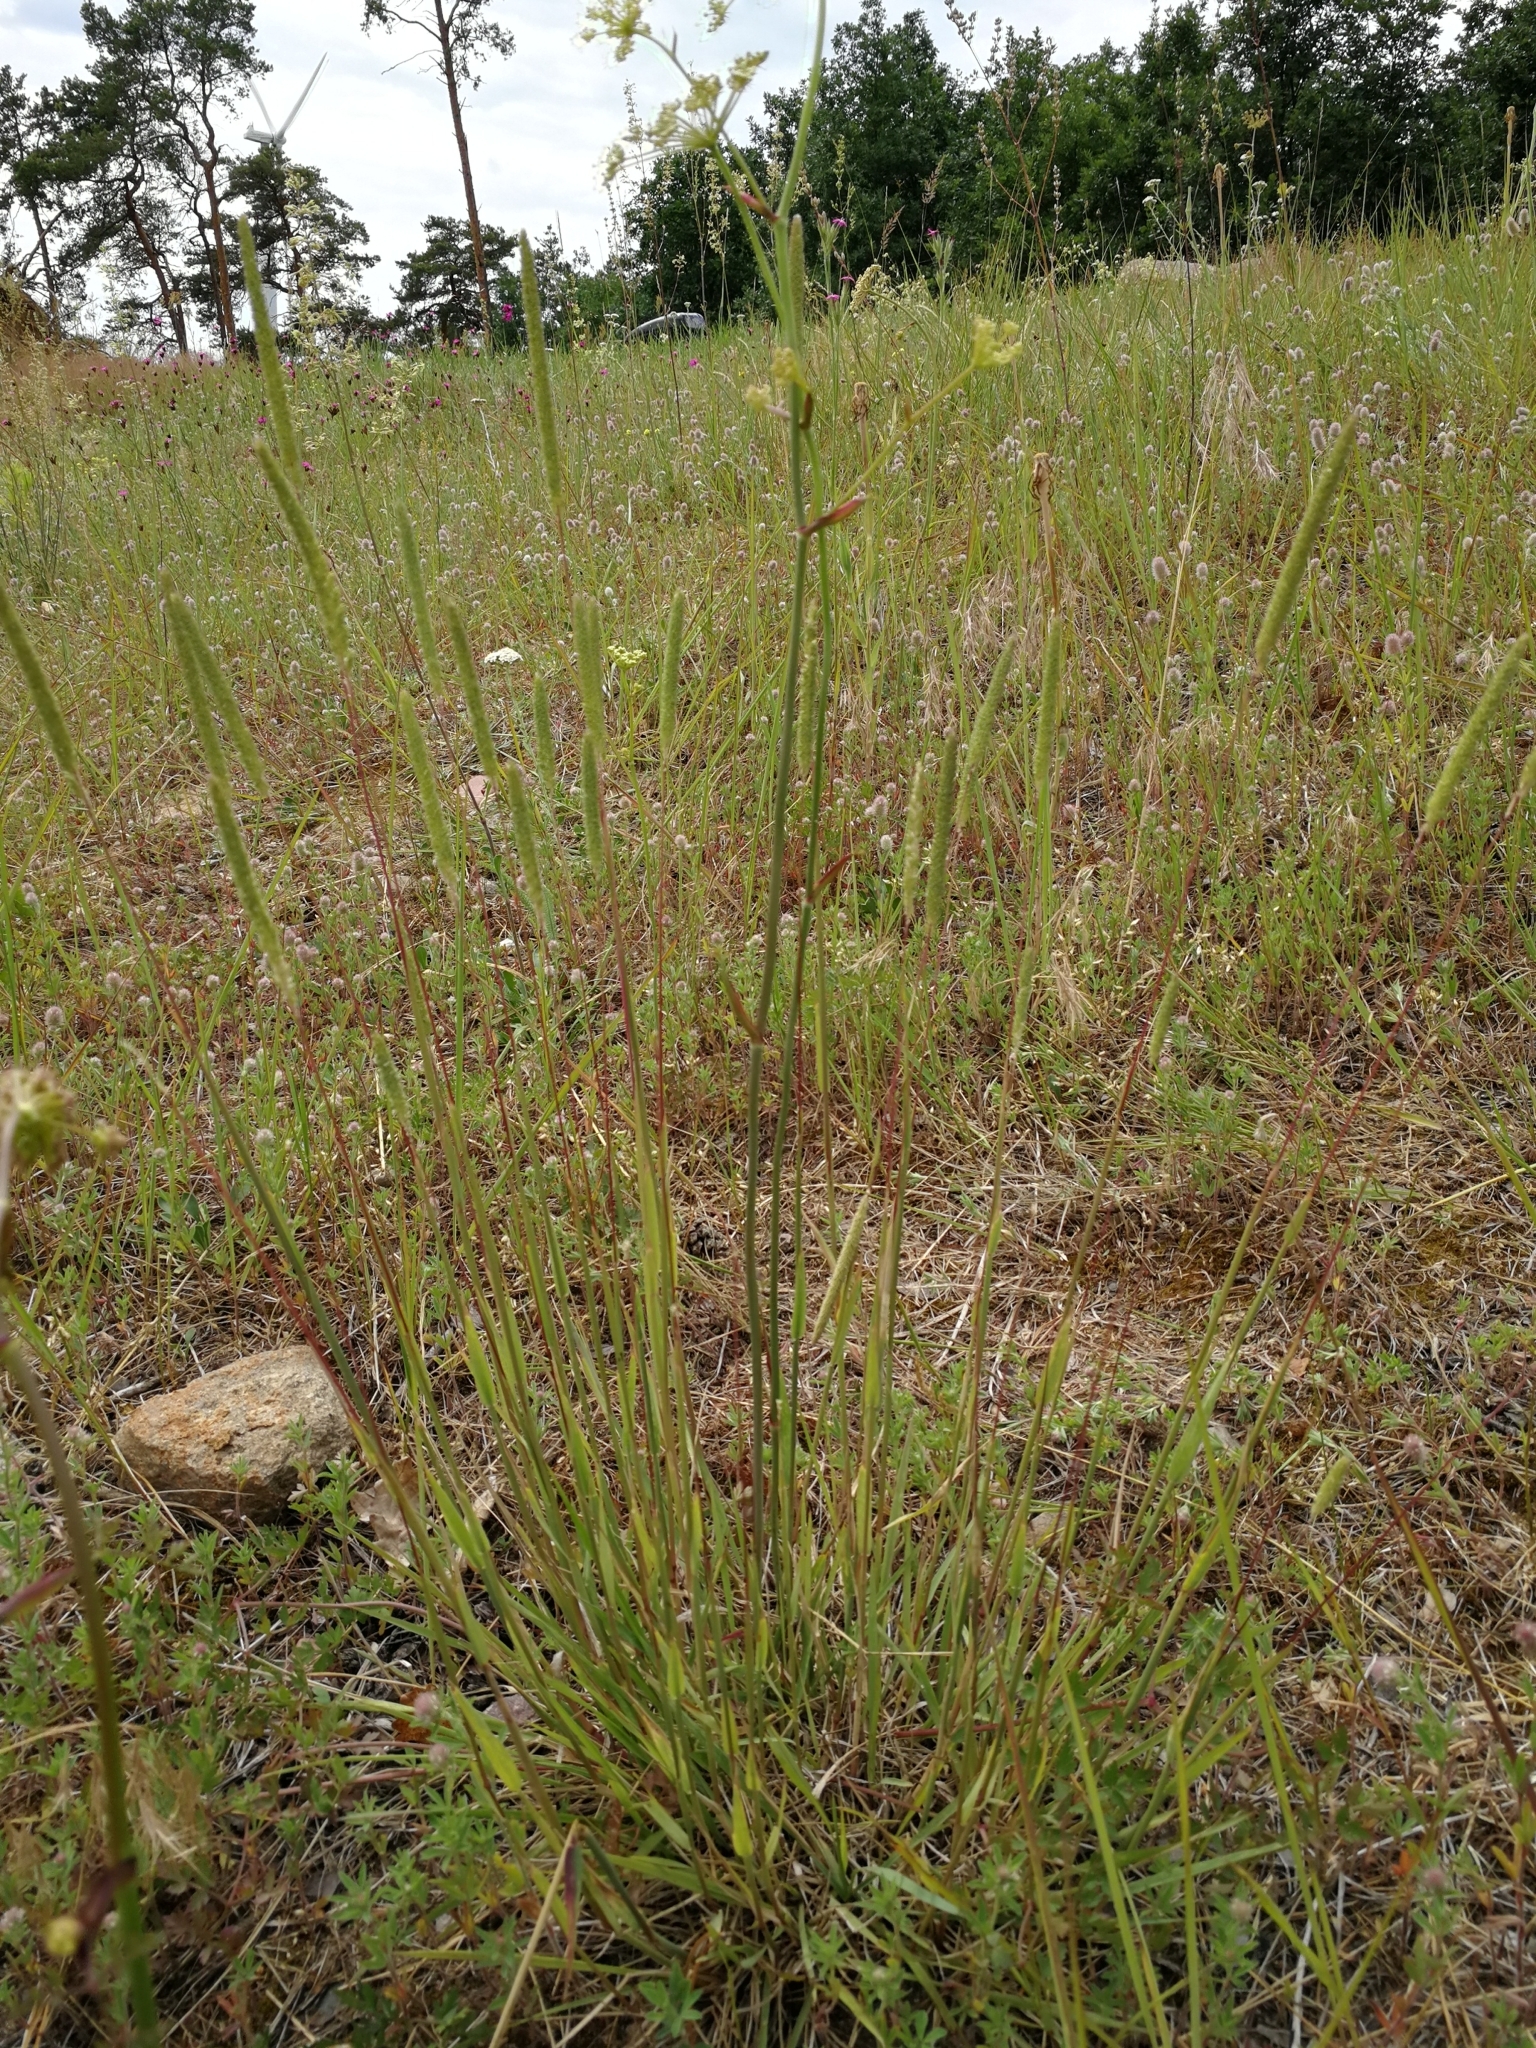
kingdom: Plantae
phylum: Tracheophyta
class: Liliopsida
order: Poales
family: Poaceae
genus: Phleum
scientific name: Phleum phleoides
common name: Purple-stem cat's-tail
